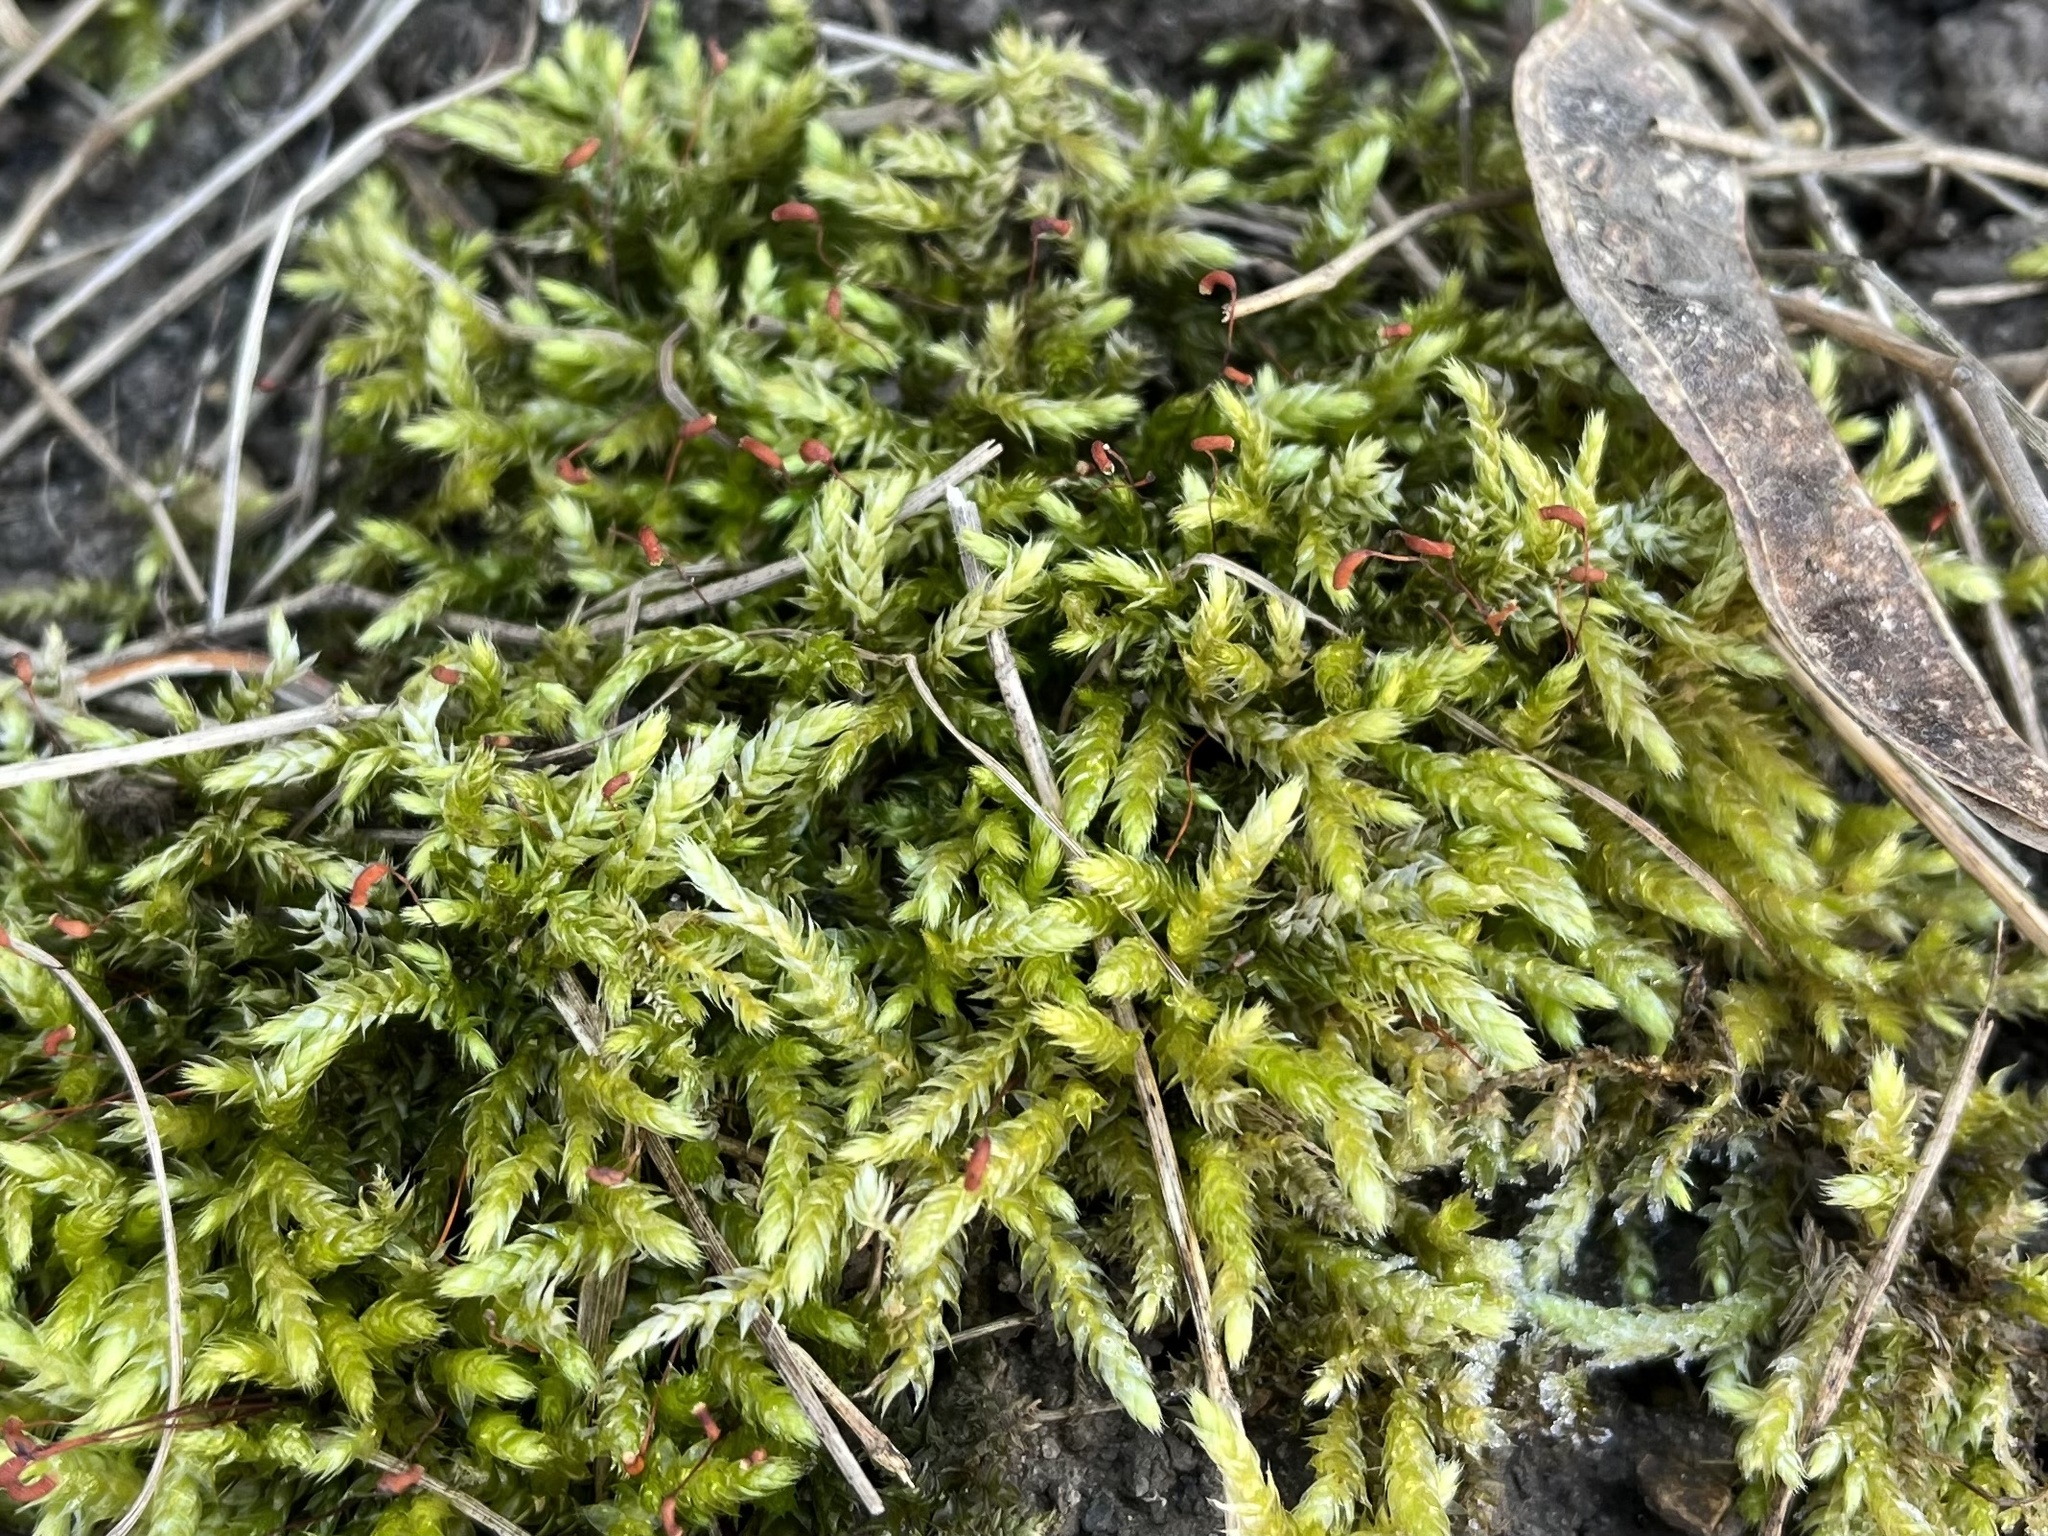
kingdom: Plantae
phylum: Bryophyta
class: Bryopsida
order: Hypnales
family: Brachytheciaceae
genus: Brachythecium
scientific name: Brachythecium rutabulum
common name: Rough-stalked feather-moss
